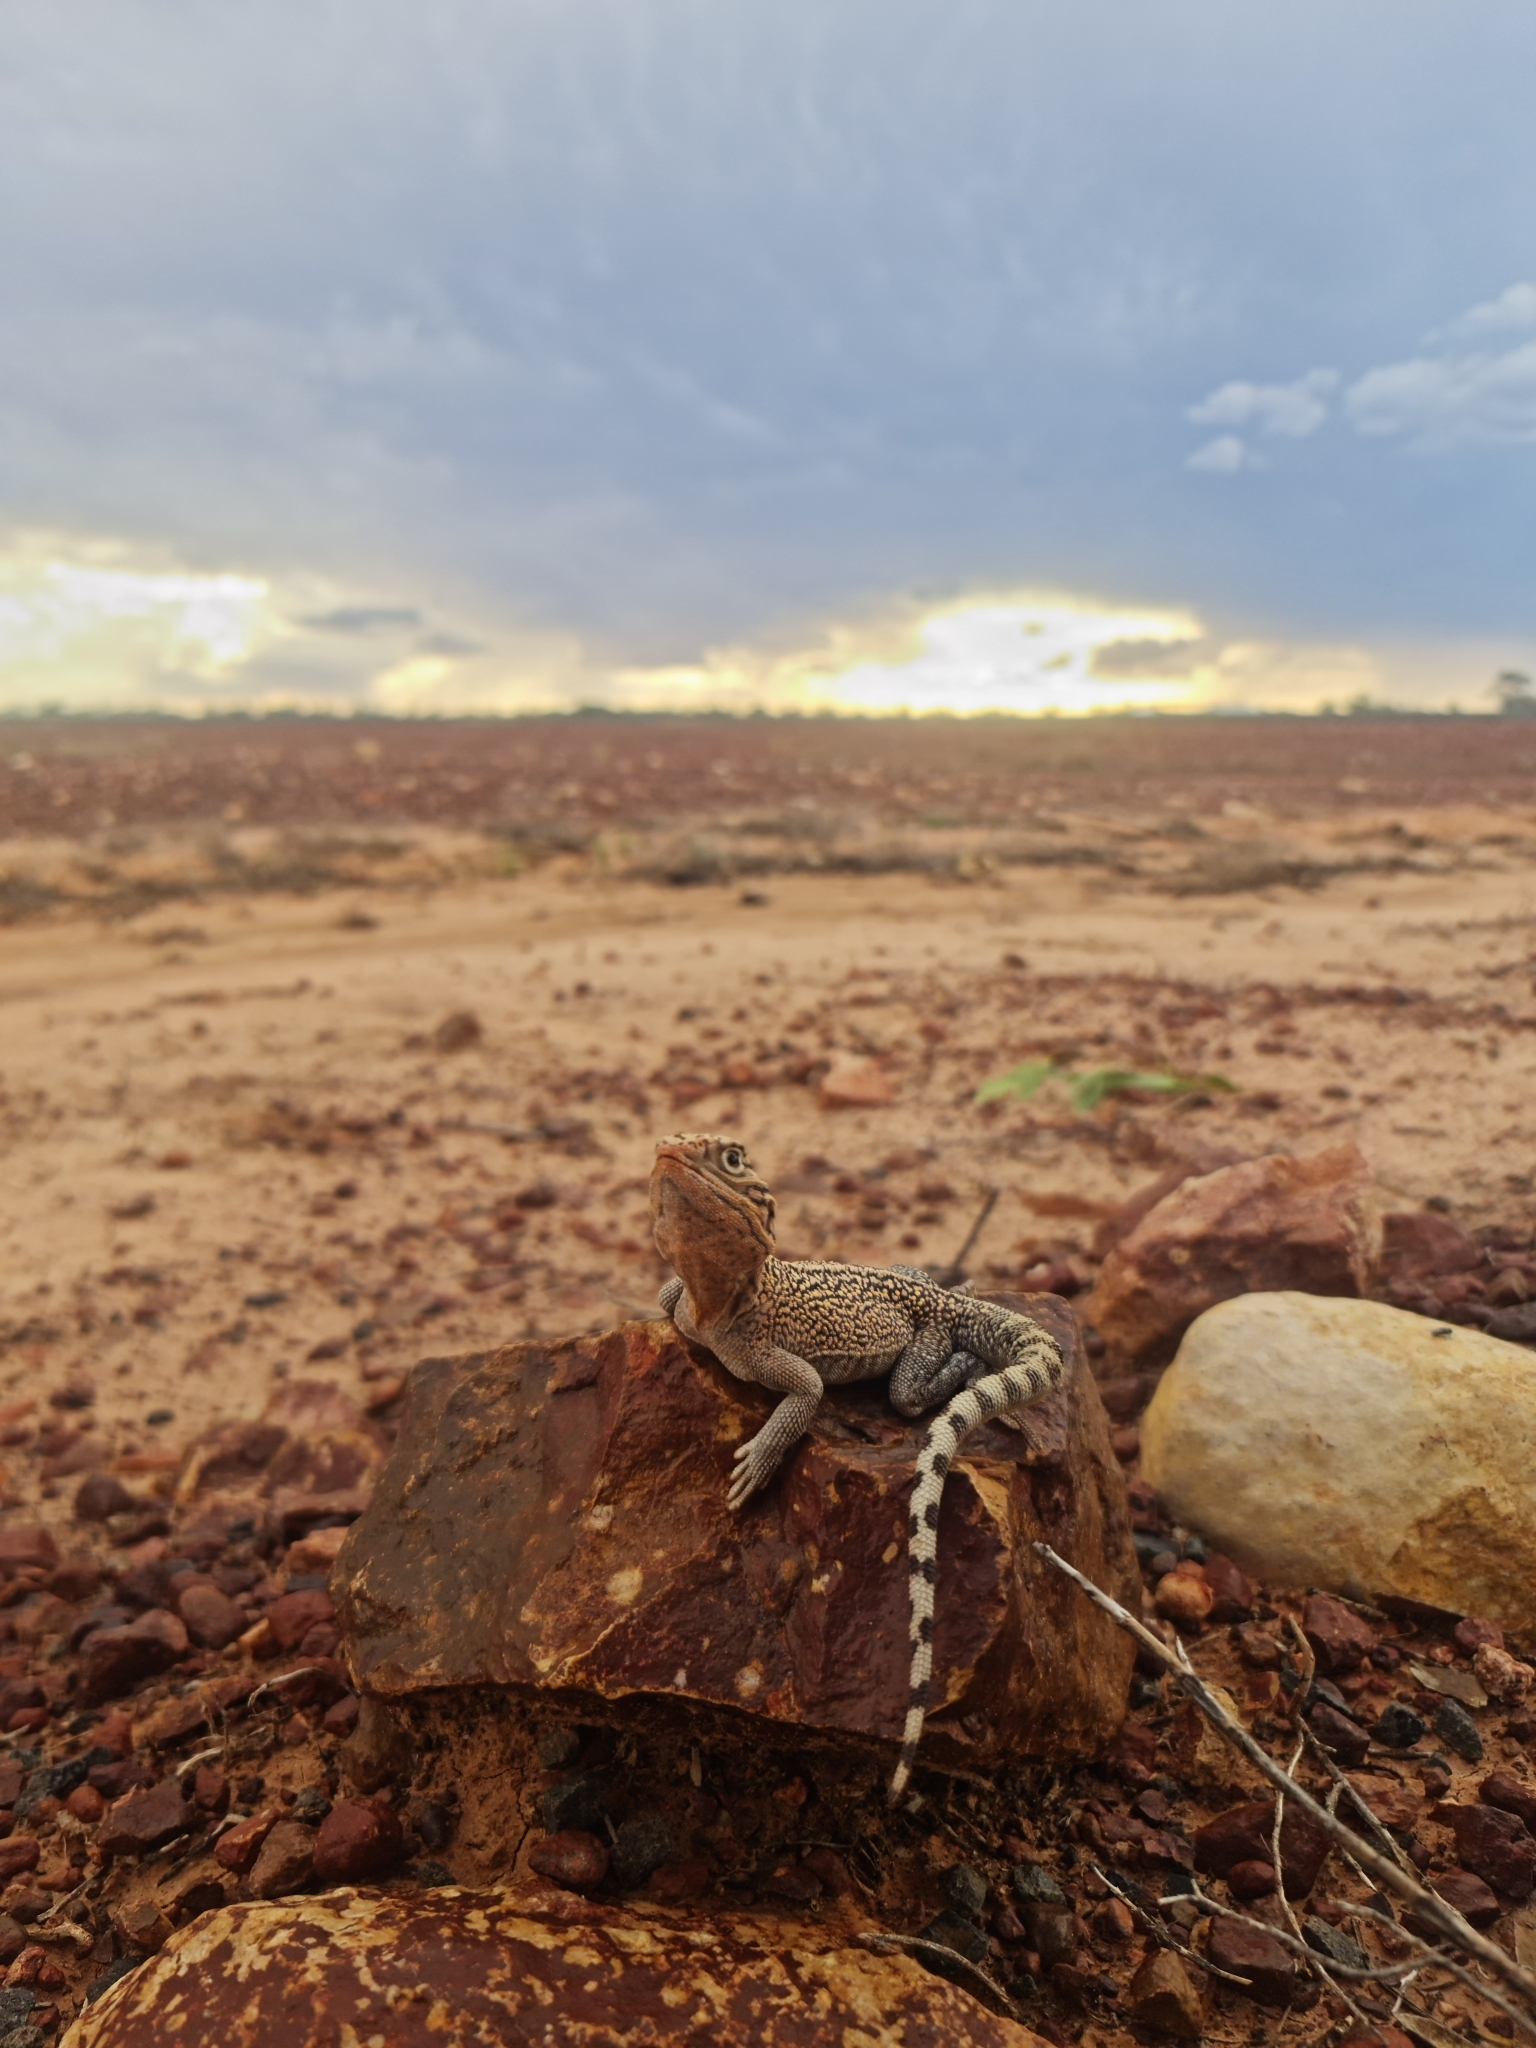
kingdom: Animalia
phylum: Chordata
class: Squamata
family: Agamidae
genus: Ctenophorus
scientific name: Ctenophorus nuchalis
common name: Central netted dragon
